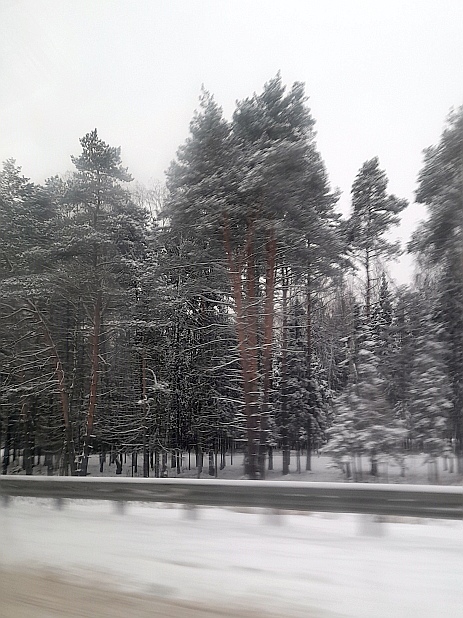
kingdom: Plantae
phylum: Tracheophyta
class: Pinopsida
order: Pinales
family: Pinaceae
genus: Pinus
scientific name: Pinus sylvestris
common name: Scots pine
